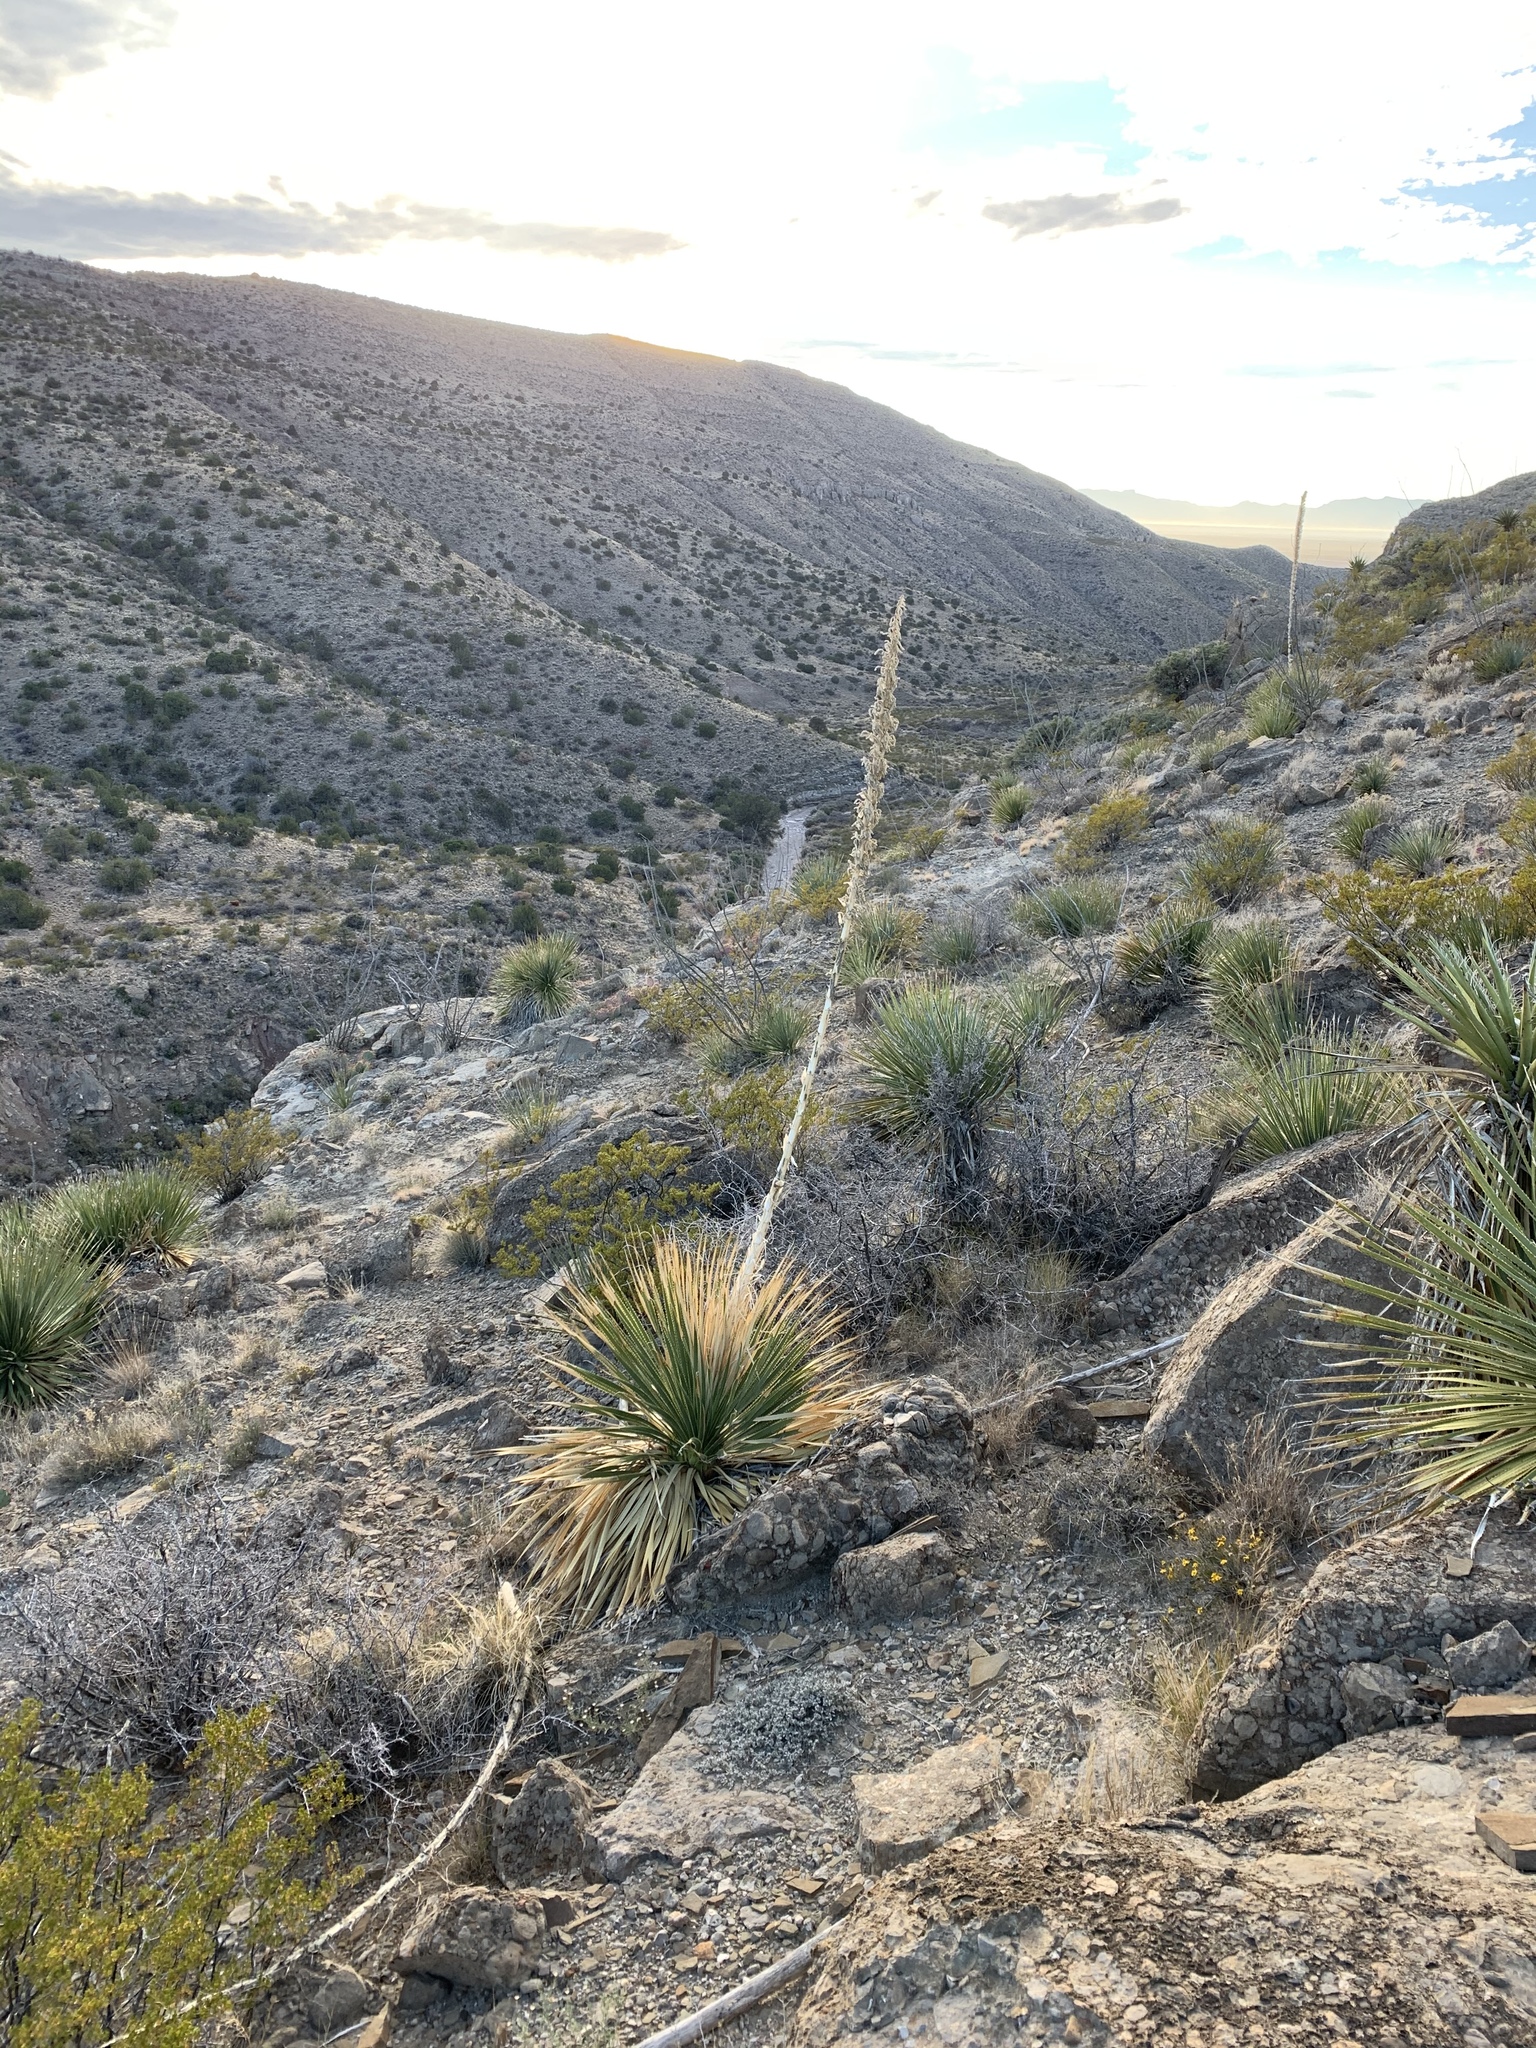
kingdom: Plantae
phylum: Tracheophyta
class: Liliopsida
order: Asparagales
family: Asparagaceae
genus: Dasylirion
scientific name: Dasylirion wheeleri
